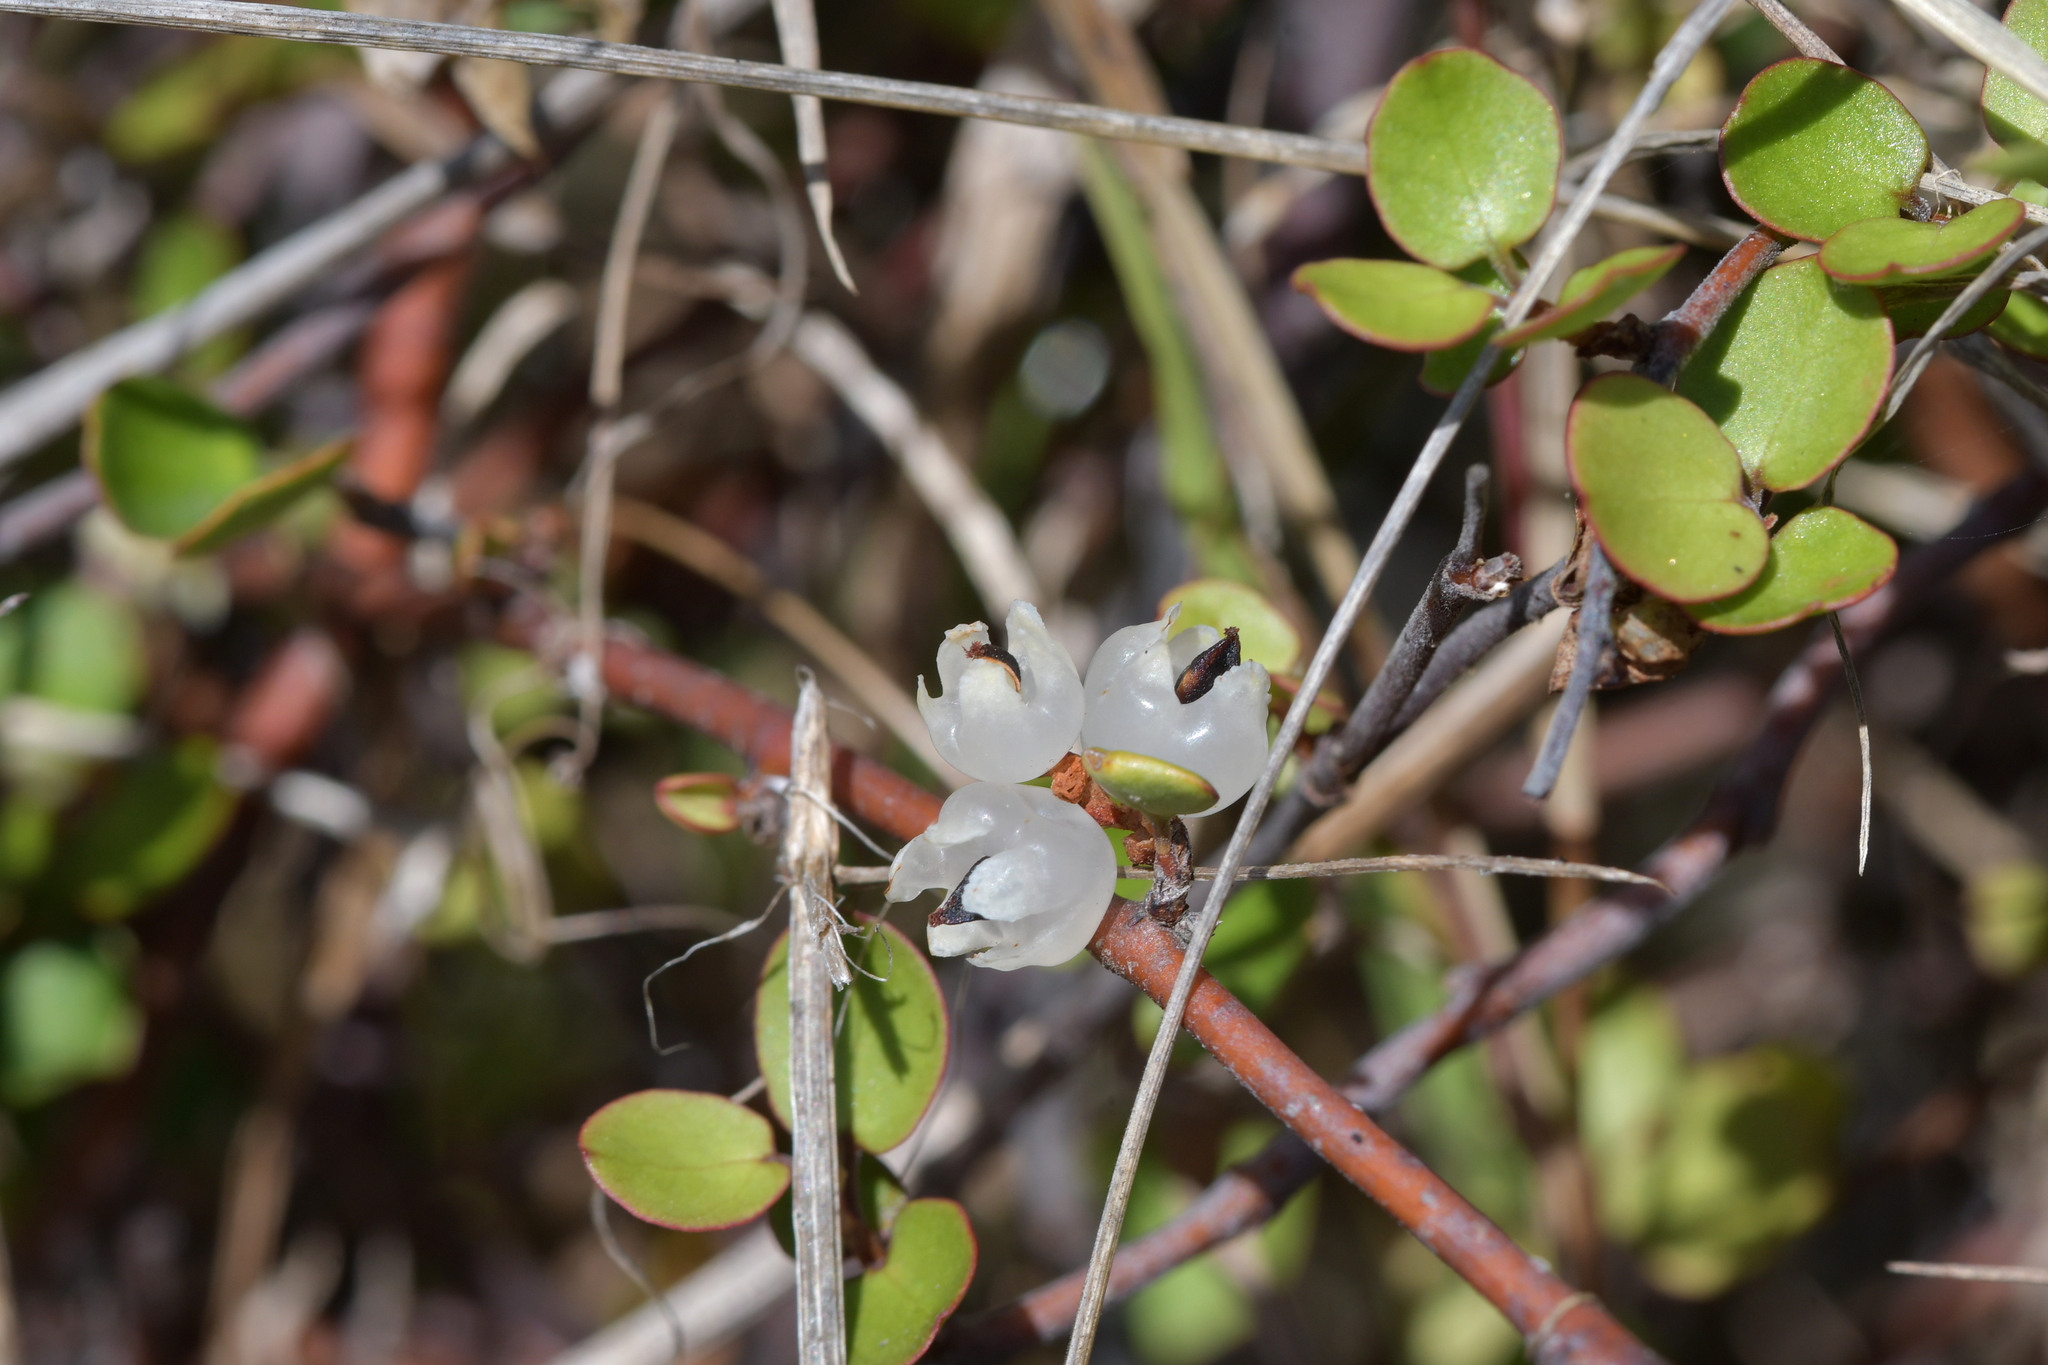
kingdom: Plantae
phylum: Tracheophyta
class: Magnoliopsida
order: Caryophyllales
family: Polygonaceae
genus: Muehlenbeckia
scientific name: Muehlenbeckia complexa
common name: Wireplant
